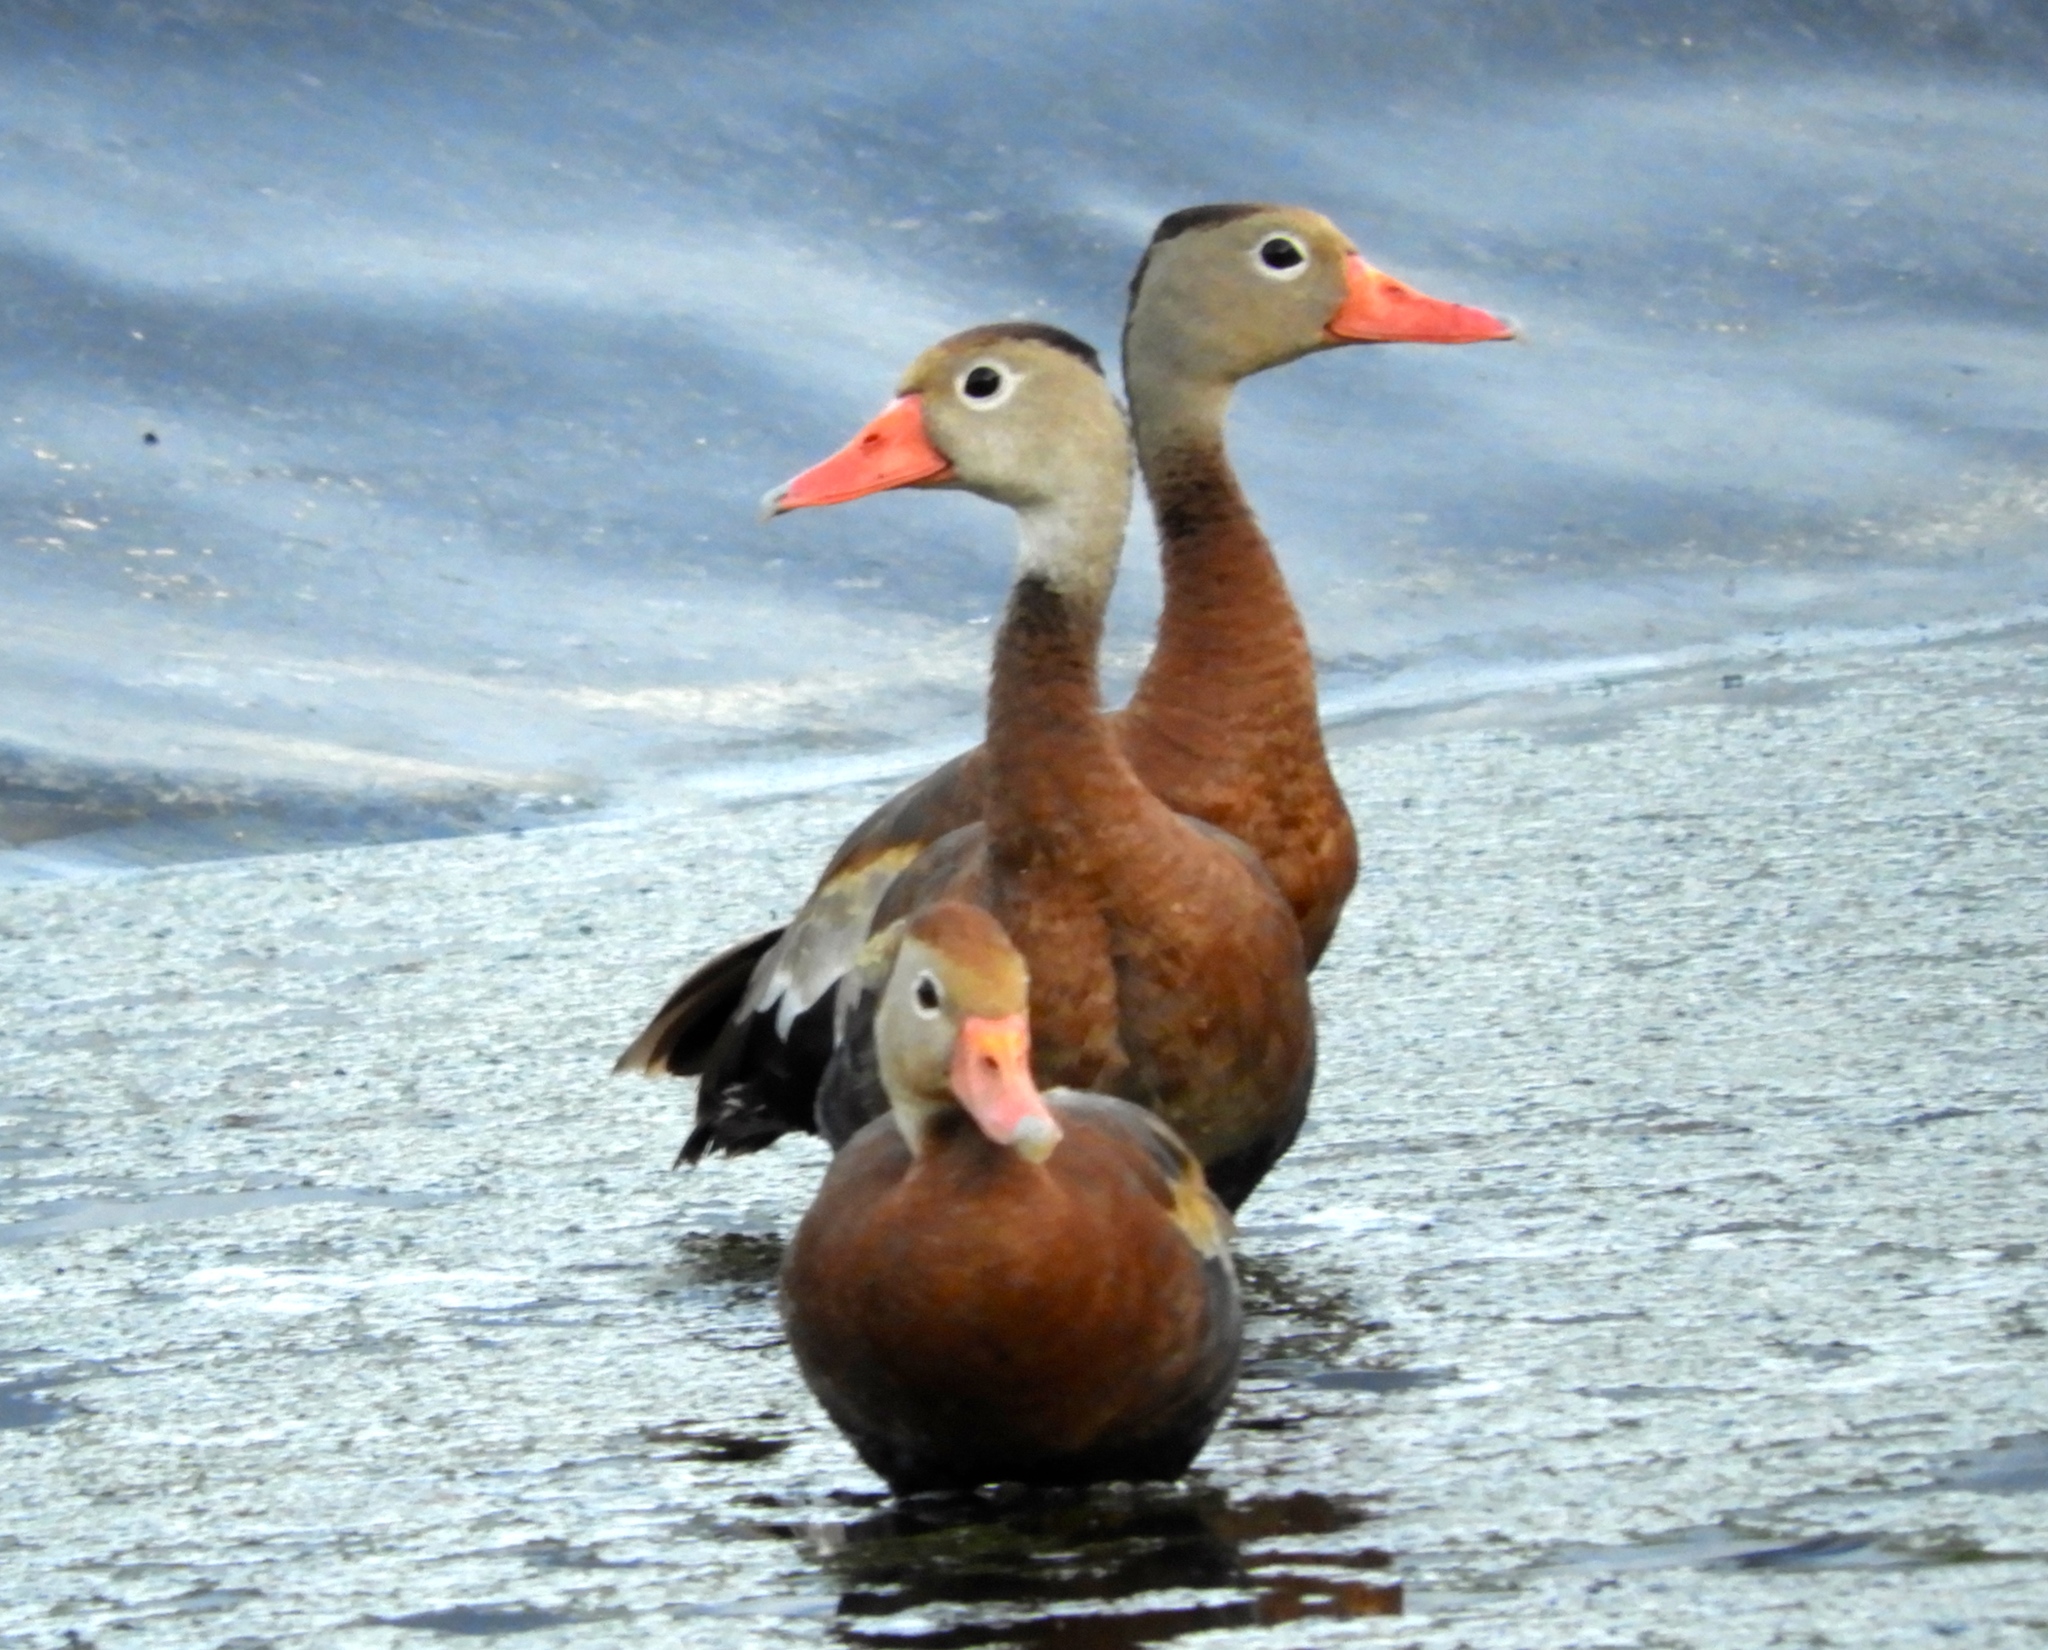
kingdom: Animalia
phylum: Chordata
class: Aves
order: Anseriformes
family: Anatidae
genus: Dendrocygna
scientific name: Dendrocygna autumnalis
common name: Black-bellied whistling duck
